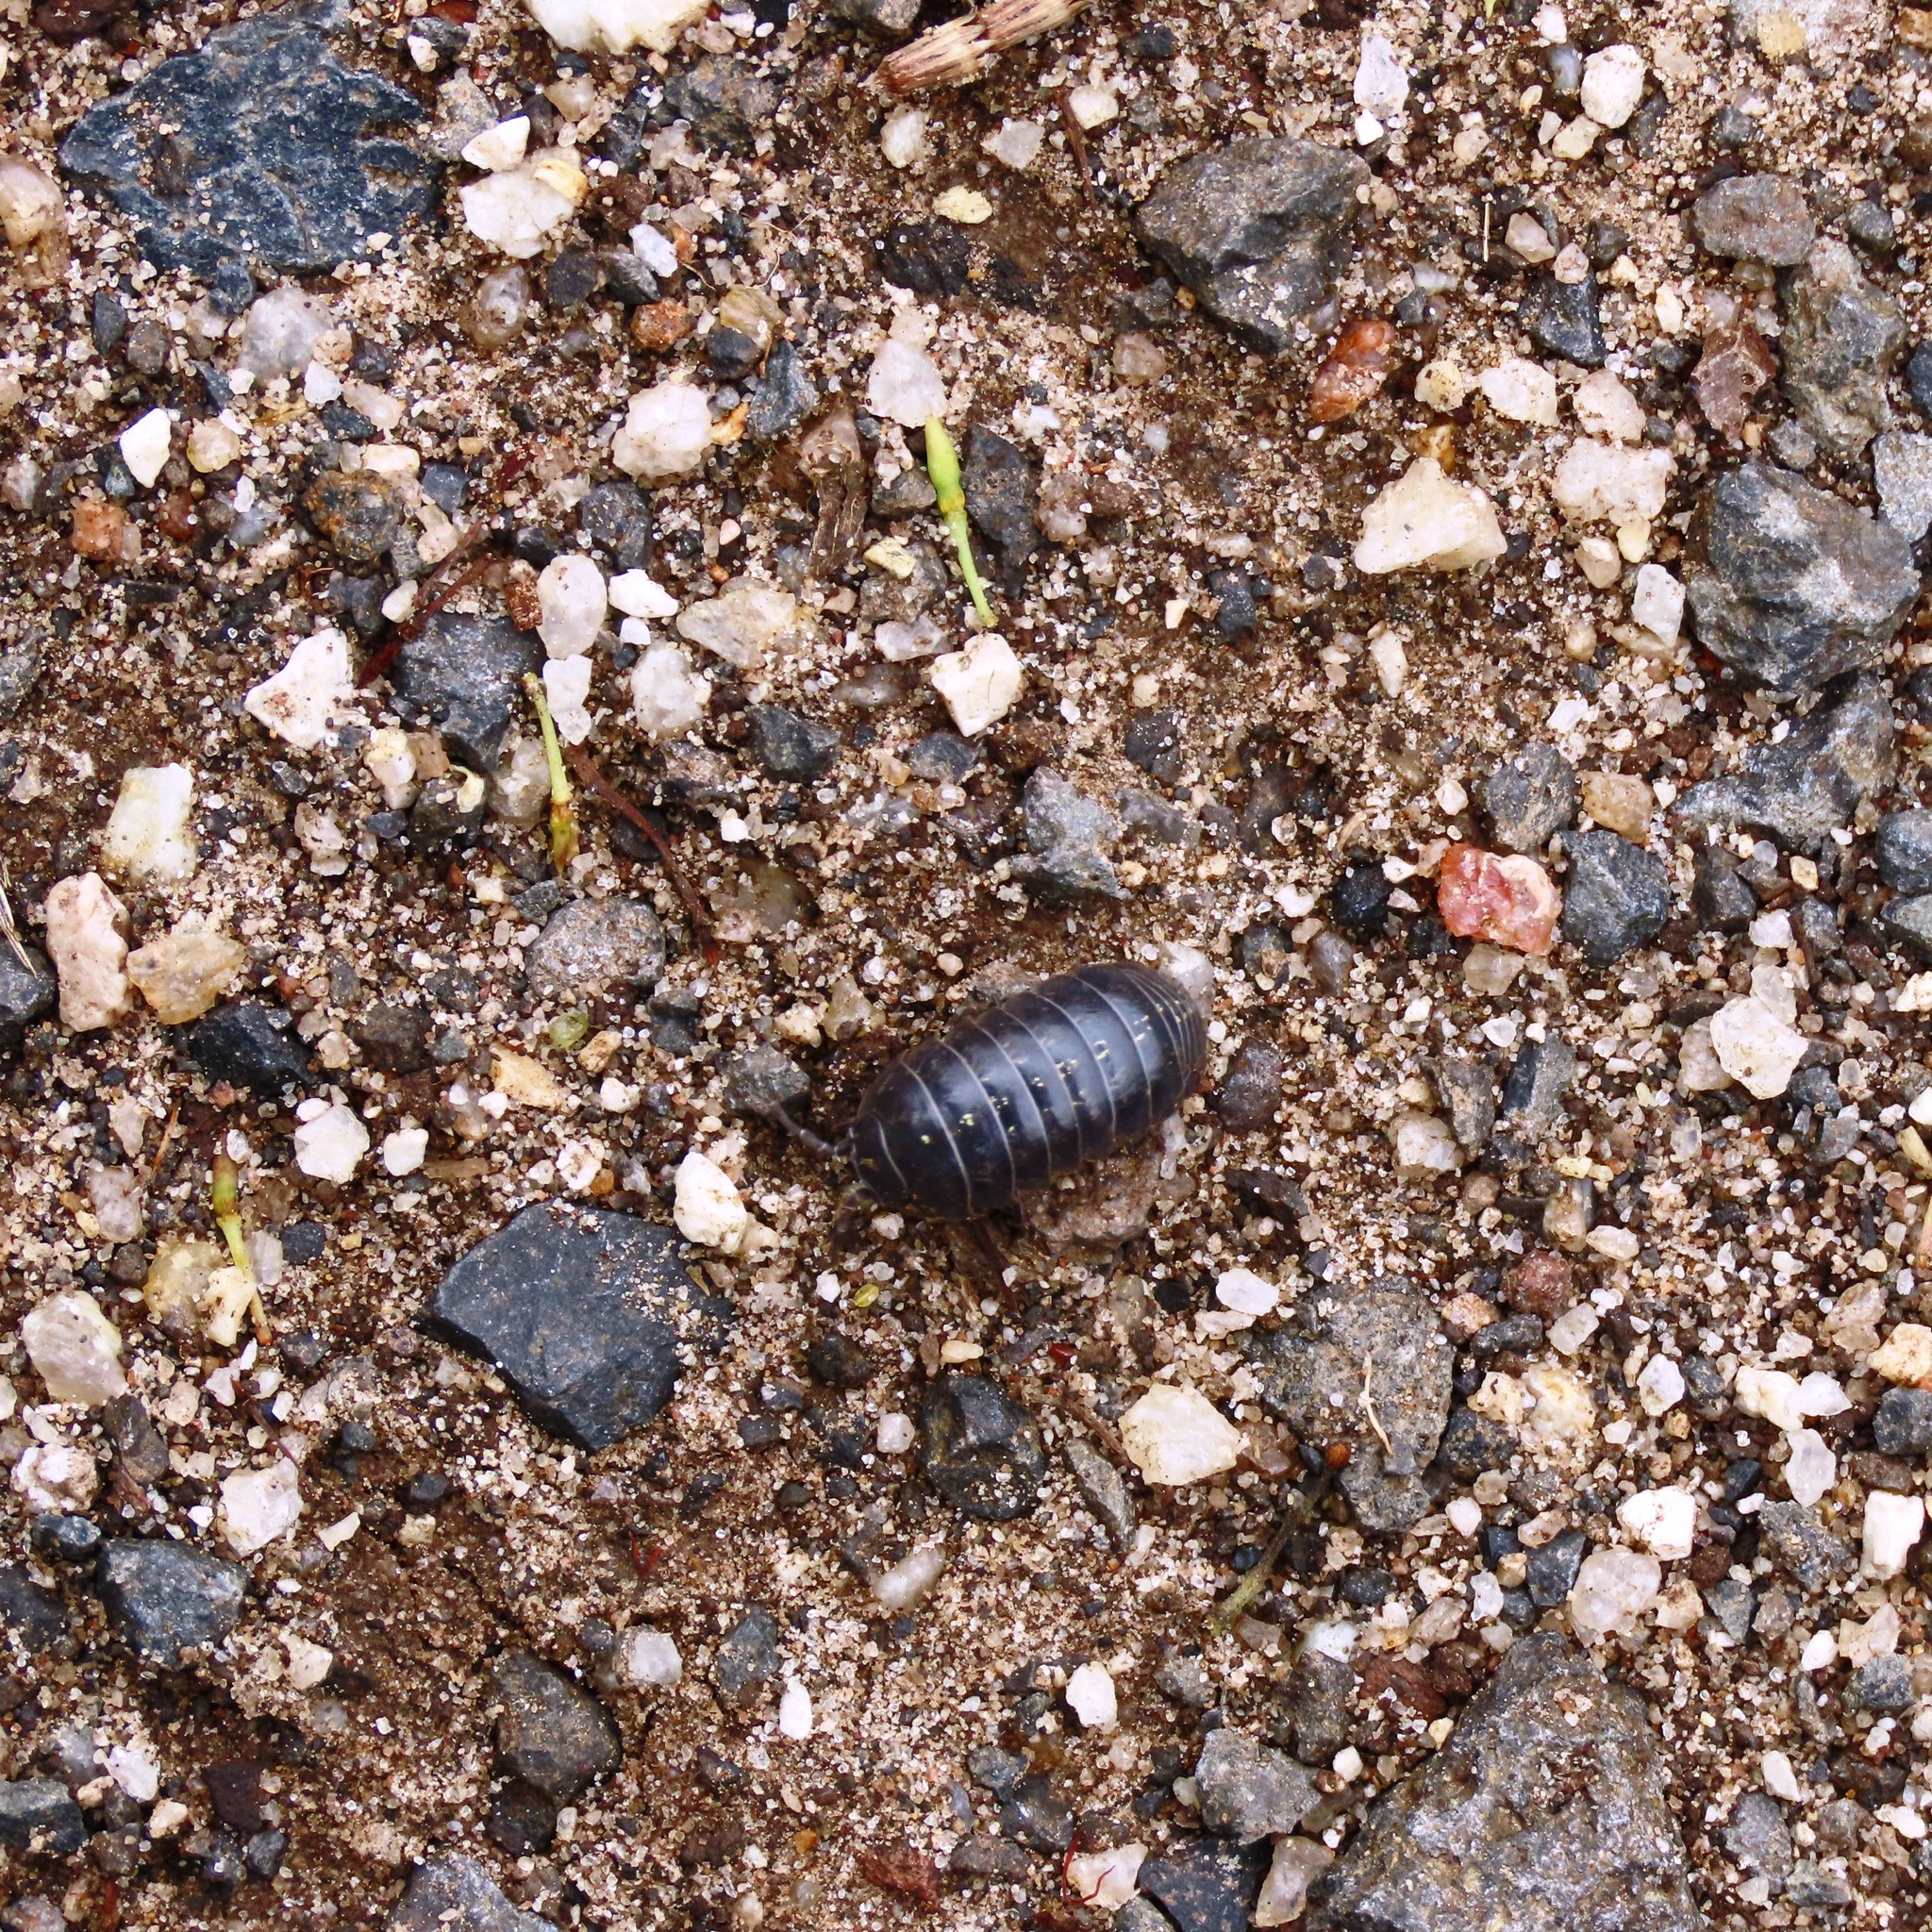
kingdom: Animalia
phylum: Arthropoda
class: Malacostraca
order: Isopoda
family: Armadillidiidae
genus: Armadillidium
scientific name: Armadillidium vulgare
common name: Common pill woodlouse
